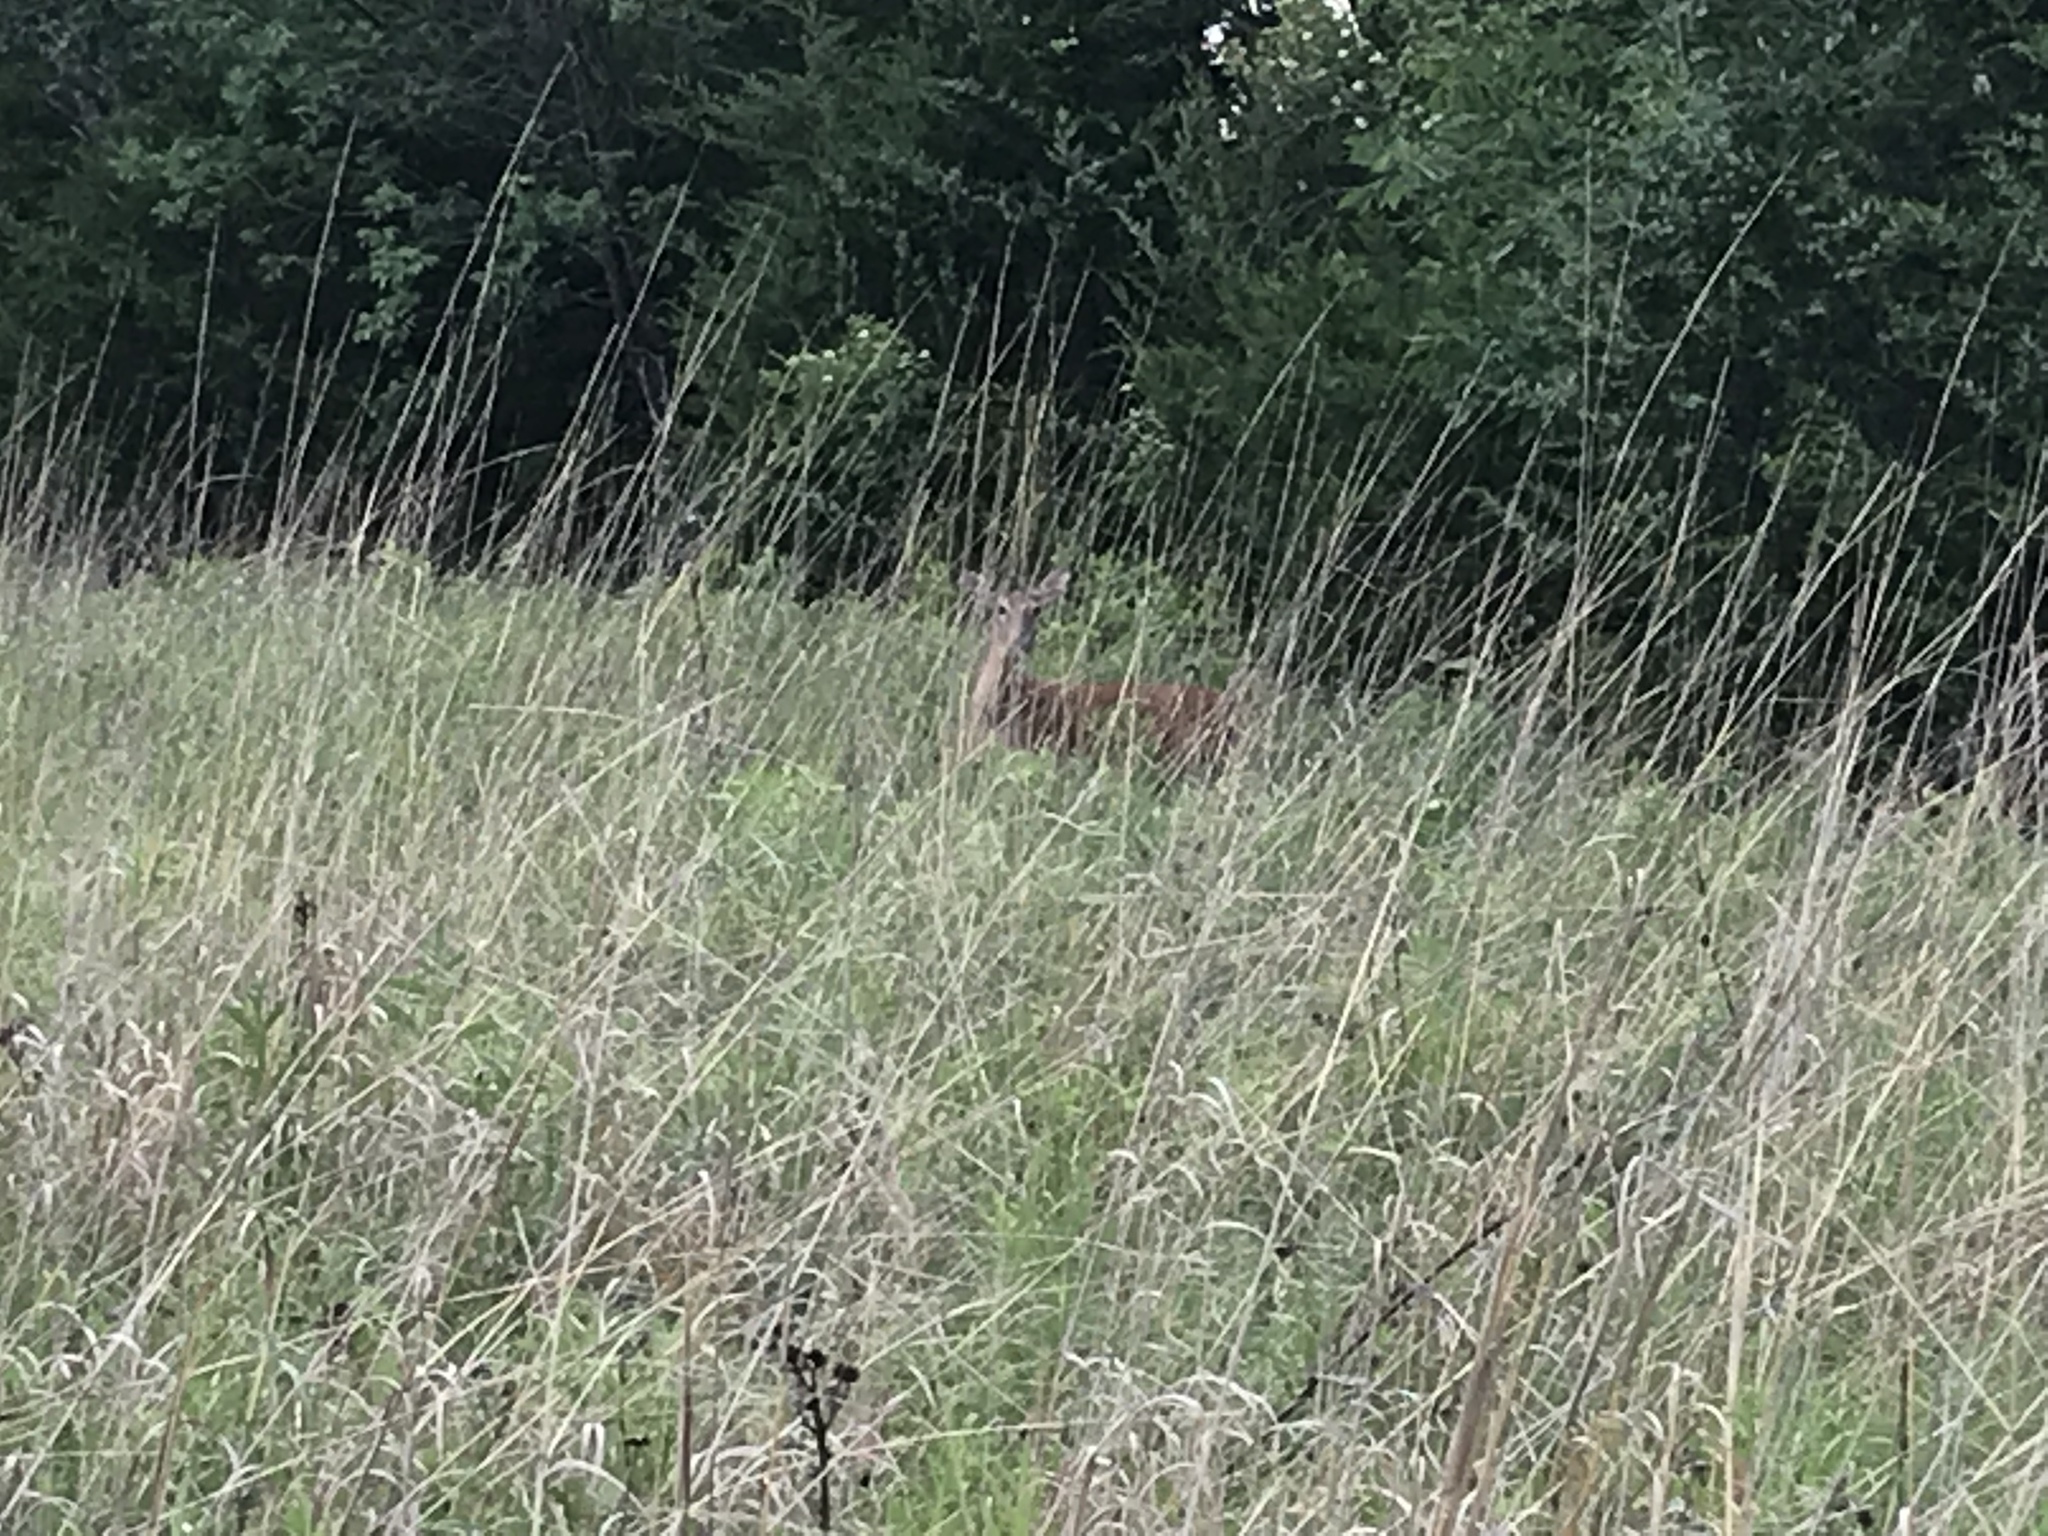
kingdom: Animalia
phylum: Chordata
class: Mammalia
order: Artiodactyla
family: Cervidae
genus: Odocoileus
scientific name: Odocoileus virginianus
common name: White-tailed deer
